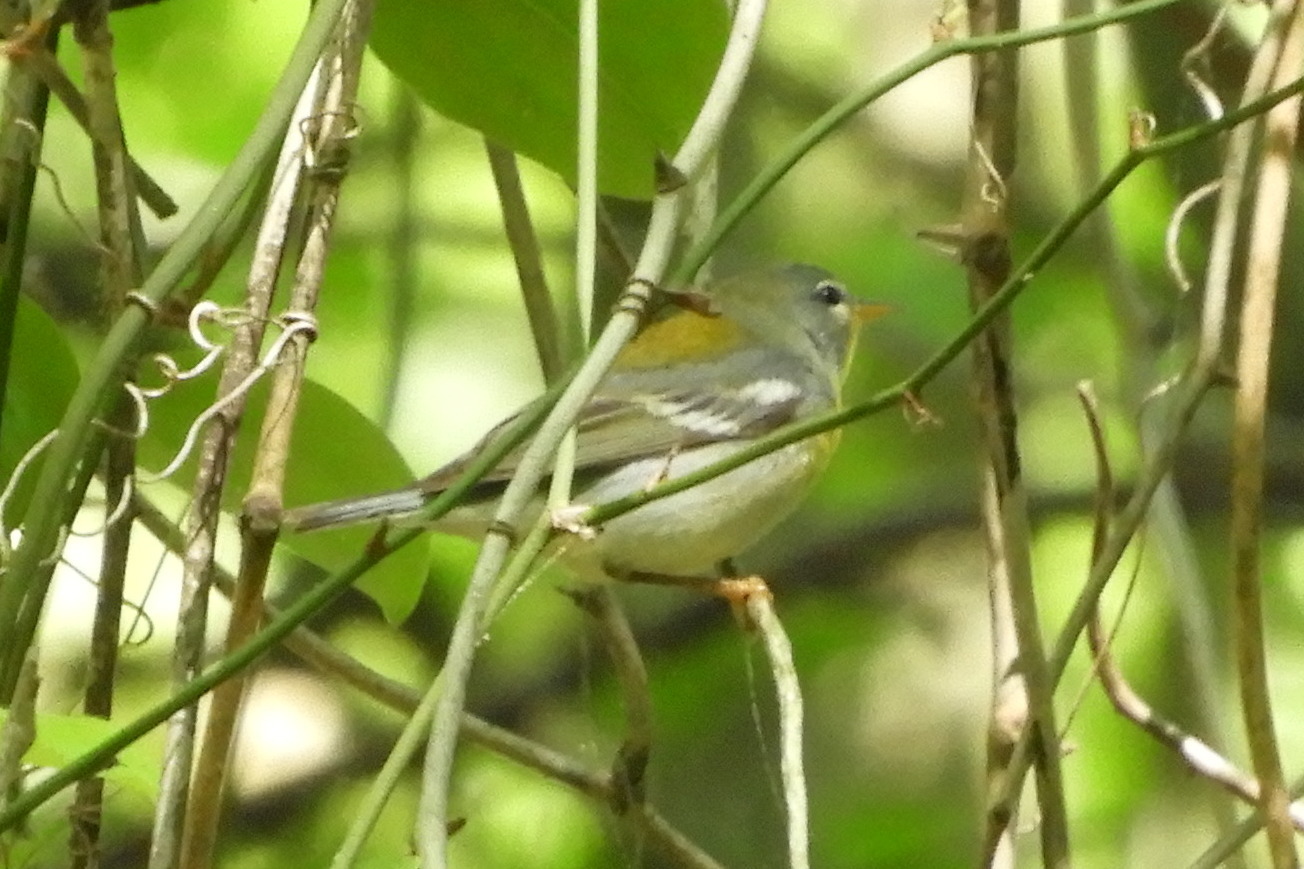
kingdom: Animalia
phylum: Chordata
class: Aves
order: Passeriformes
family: Parulidae
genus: Setophaga
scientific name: Setophaga americana
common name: Northern parula
